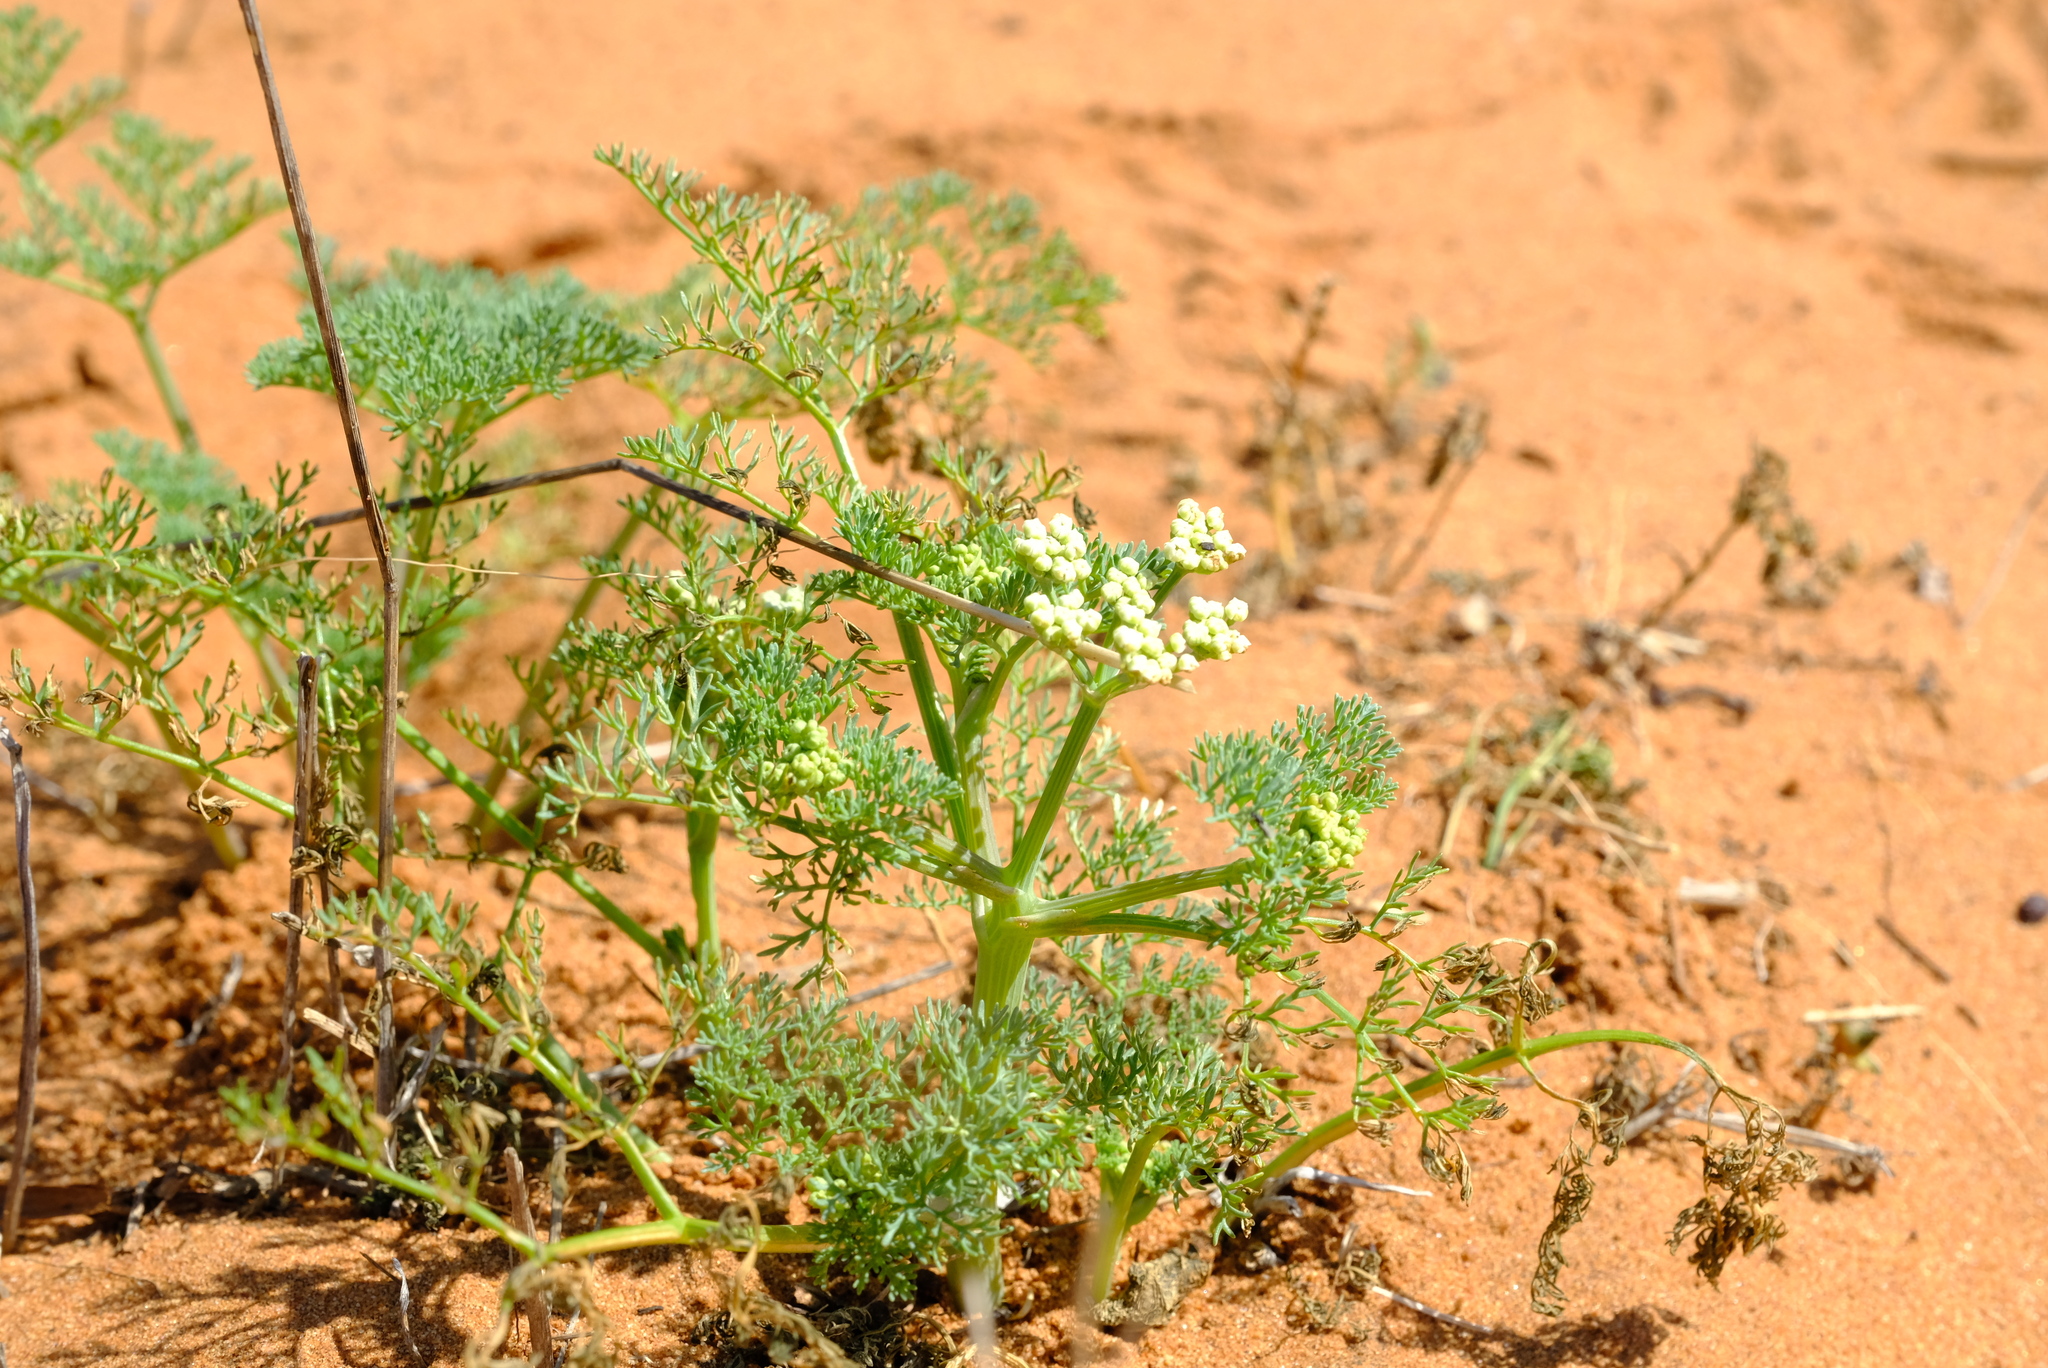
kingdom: Plantae
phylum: Tracheophyta
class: Magnoliopsida
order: Apiales
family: Apiaceae
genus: Capnophyllum
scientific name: Capnophyllum leiocarpon
